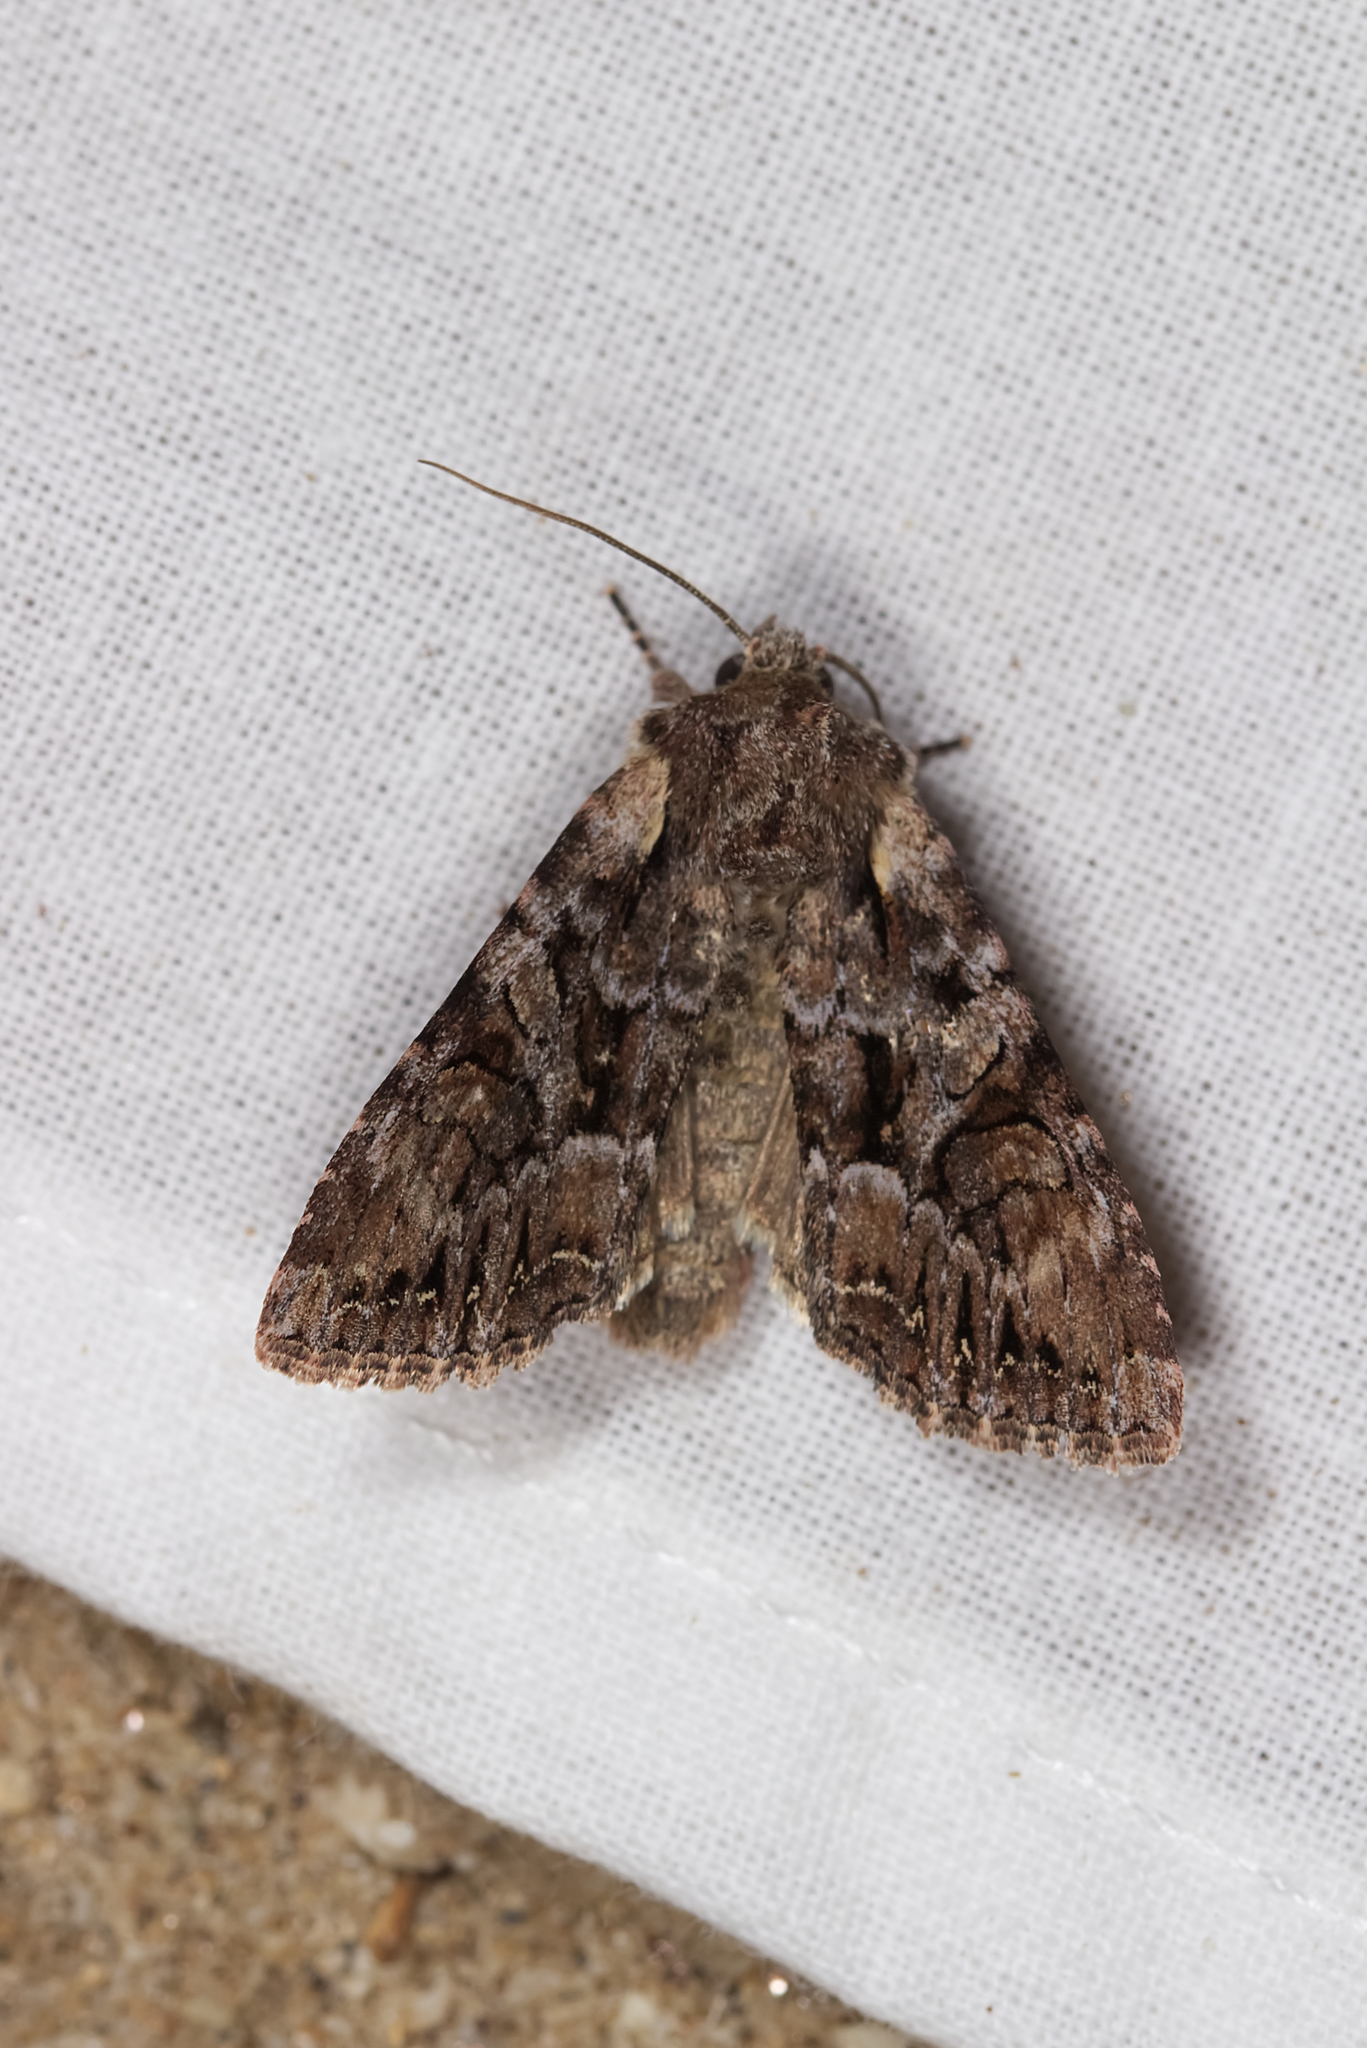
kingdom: Animalia
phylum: Arthropoda
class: Insecta
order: Lepidoptera
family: Noctuidae
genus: Lacanobia
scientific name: Lacanobia thalassina
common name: Pale-shouldered brocade
